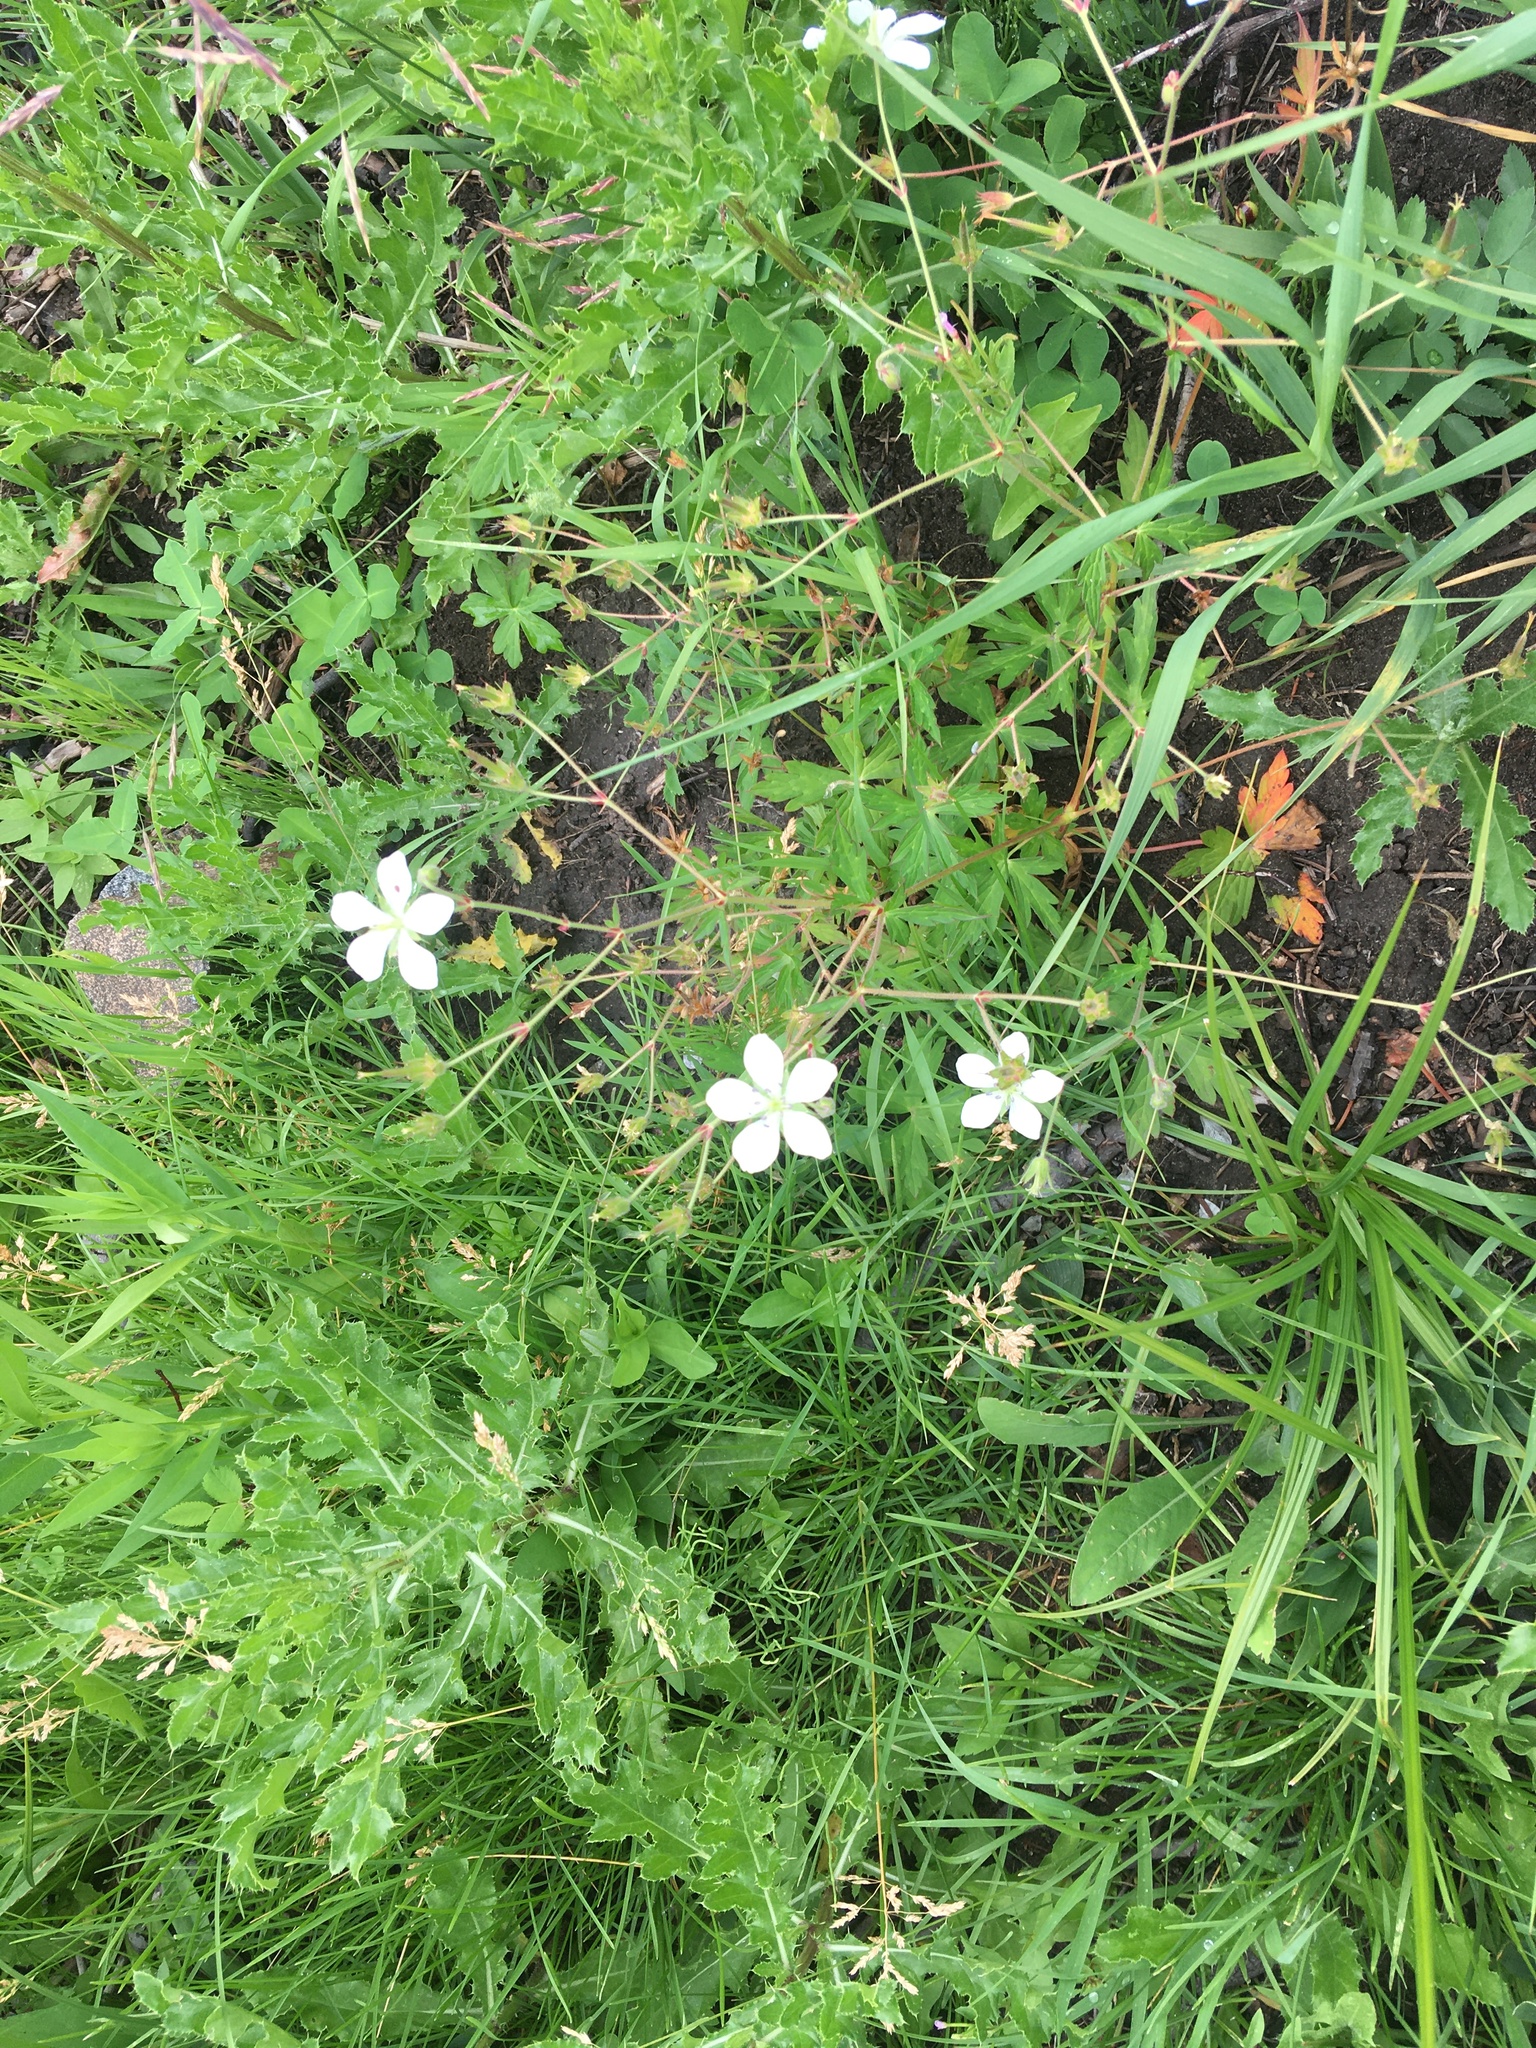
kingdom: Plantae
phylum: Tracheophyta
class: Magnoliopsida
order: Geraniales
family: Geraniaceae
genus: Geranium
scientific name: Geranium richardsonii
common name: Richardson's crane's-bill
